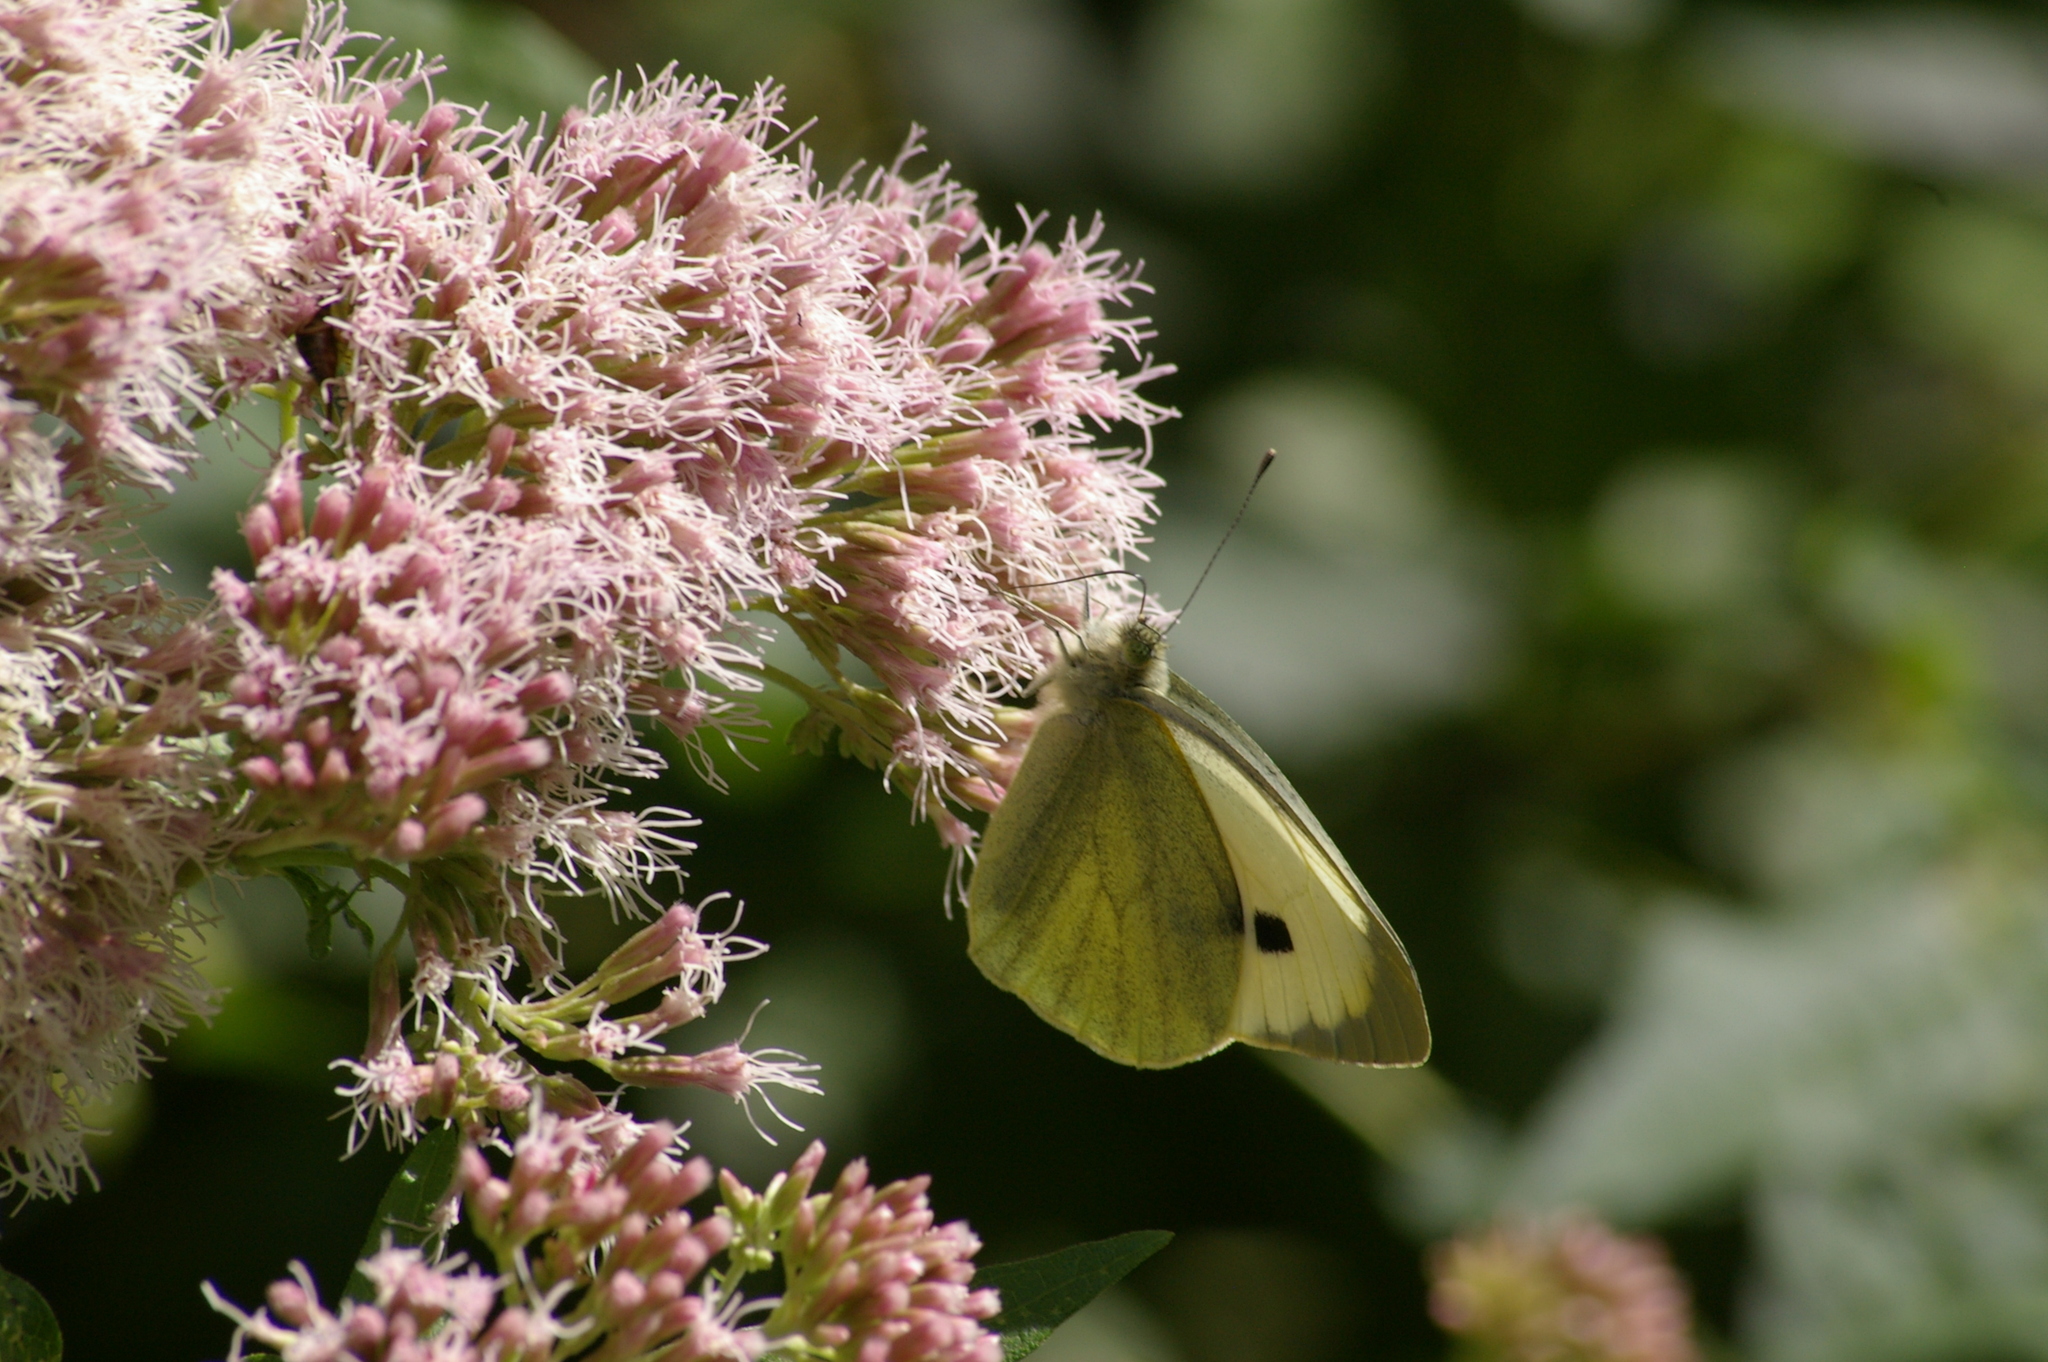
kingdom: Animalia
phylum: Arthropoda
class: Insecta
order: Lepidoptera
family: Pieridae
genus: Pieris
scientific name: Pieris brassicae
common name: Large white
